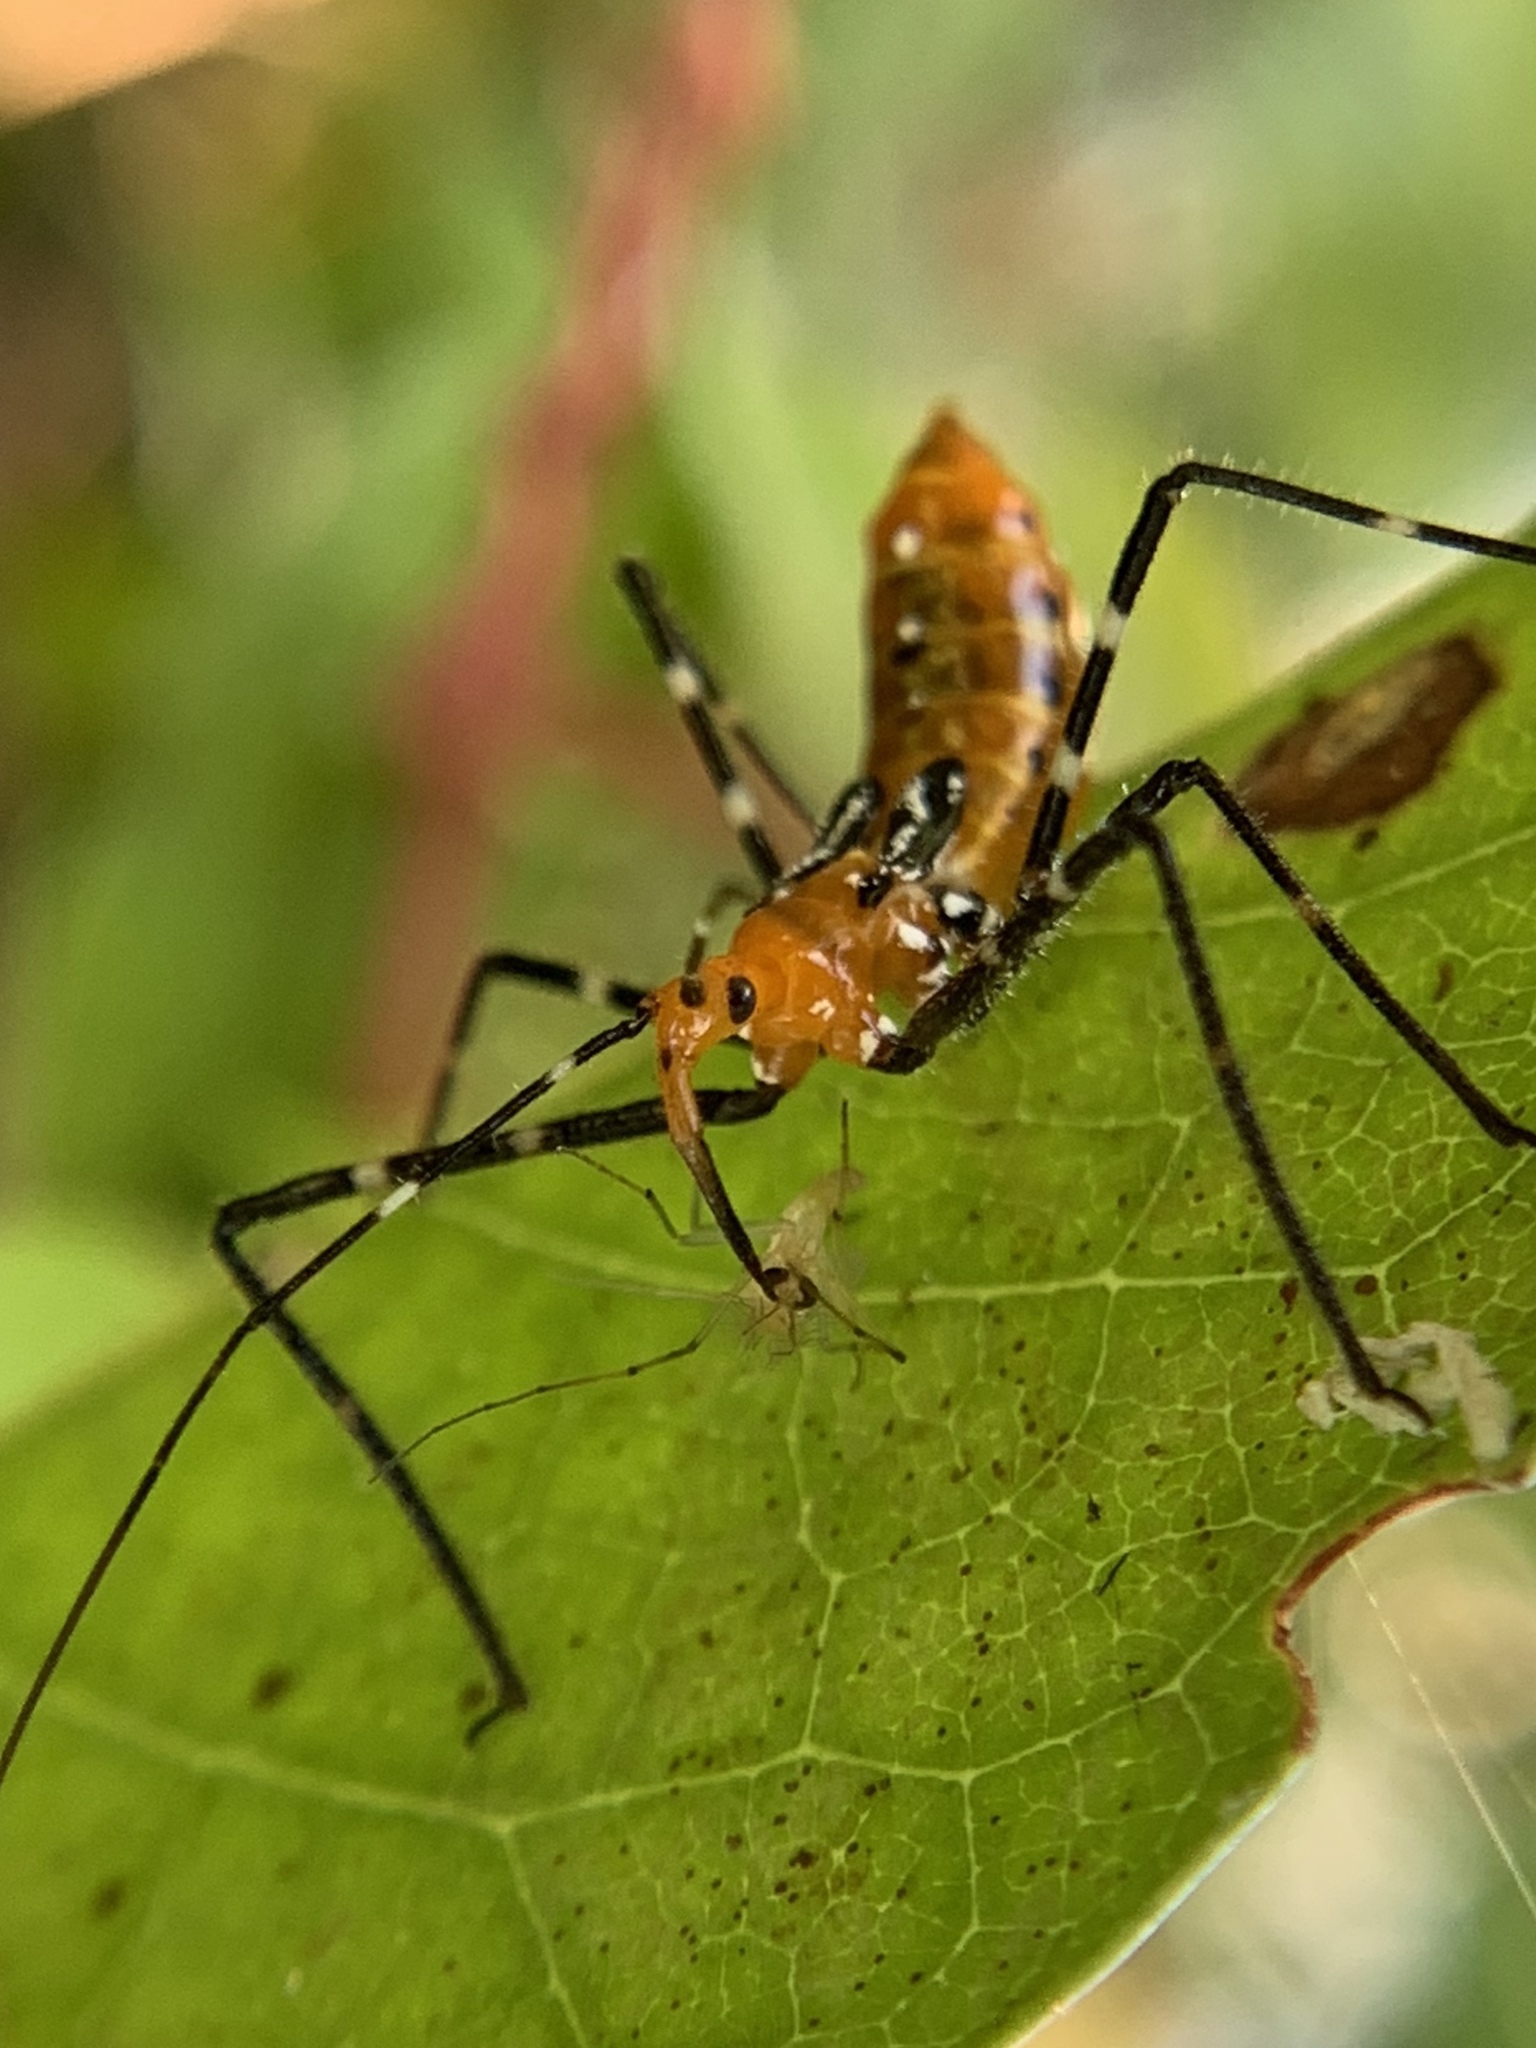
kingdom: Animalia
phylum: Arthropoda
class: Insecta
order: Hemiptera
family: Reduviidae
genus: Zelus
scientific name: Zelus longipes
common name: Milkweed assassin bug
